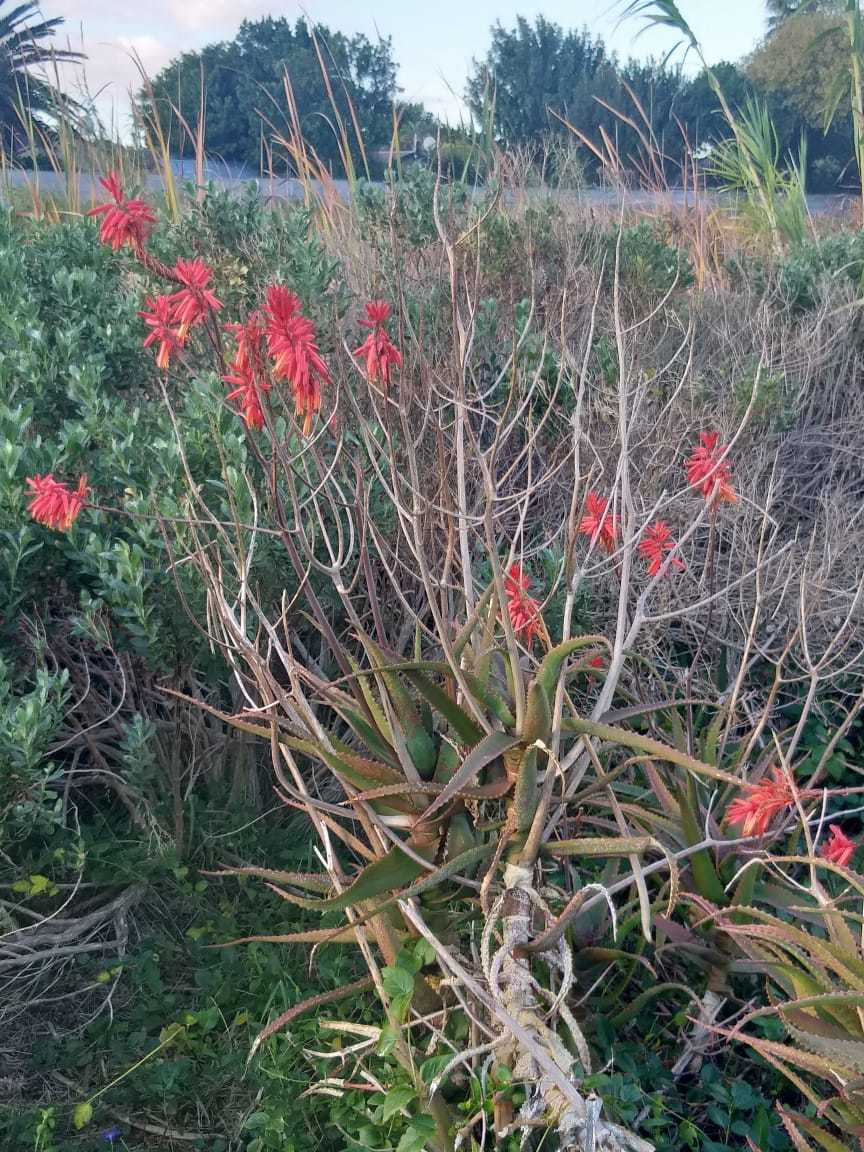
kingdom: Plantae
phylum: Tracheophyta
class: Liliopsida
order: Asparagales
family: Asphodelaceae
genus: Aloe
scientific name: Aloe cameronii
